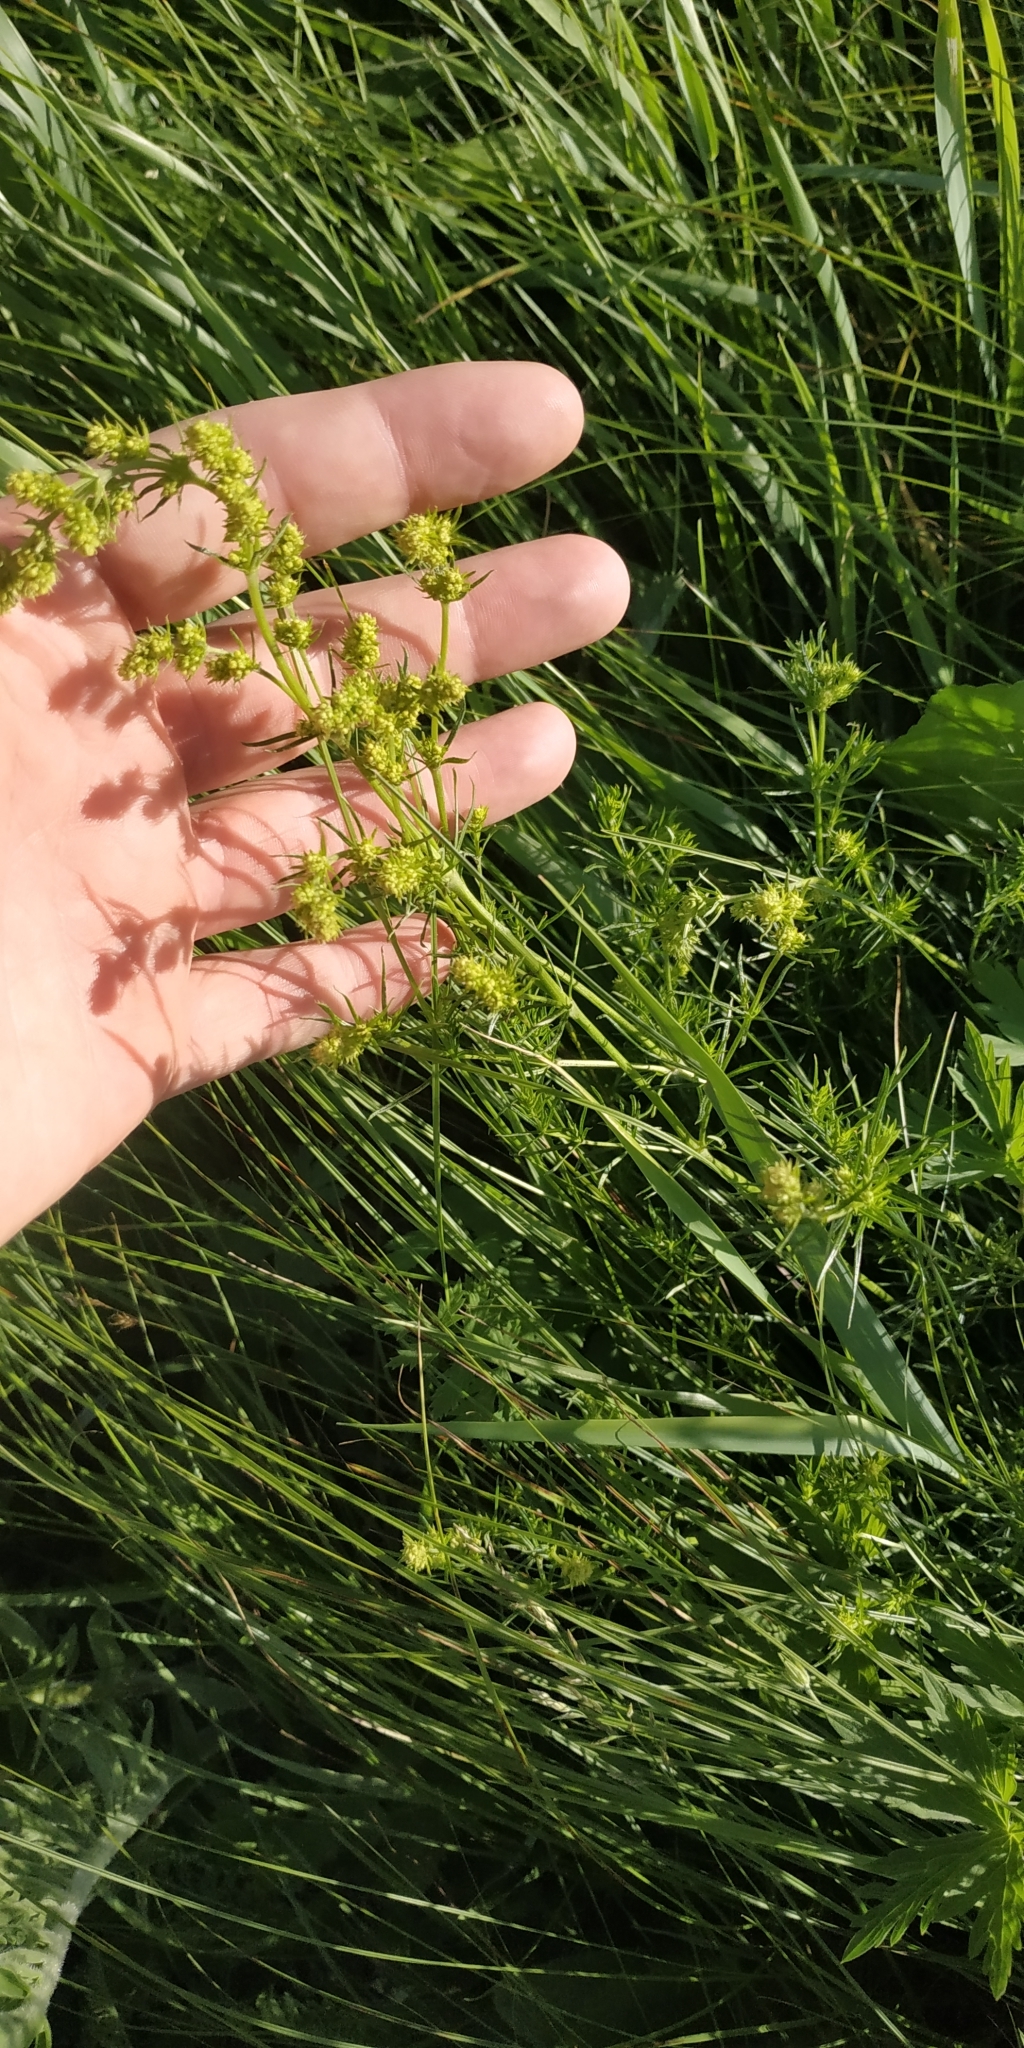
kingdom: Plantae
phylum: Tracheophyta
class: Magnoliopsida
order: Gentianales
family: Rubiaceae
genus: Galium
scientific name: Galium verum
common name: Lady's bedstraw
